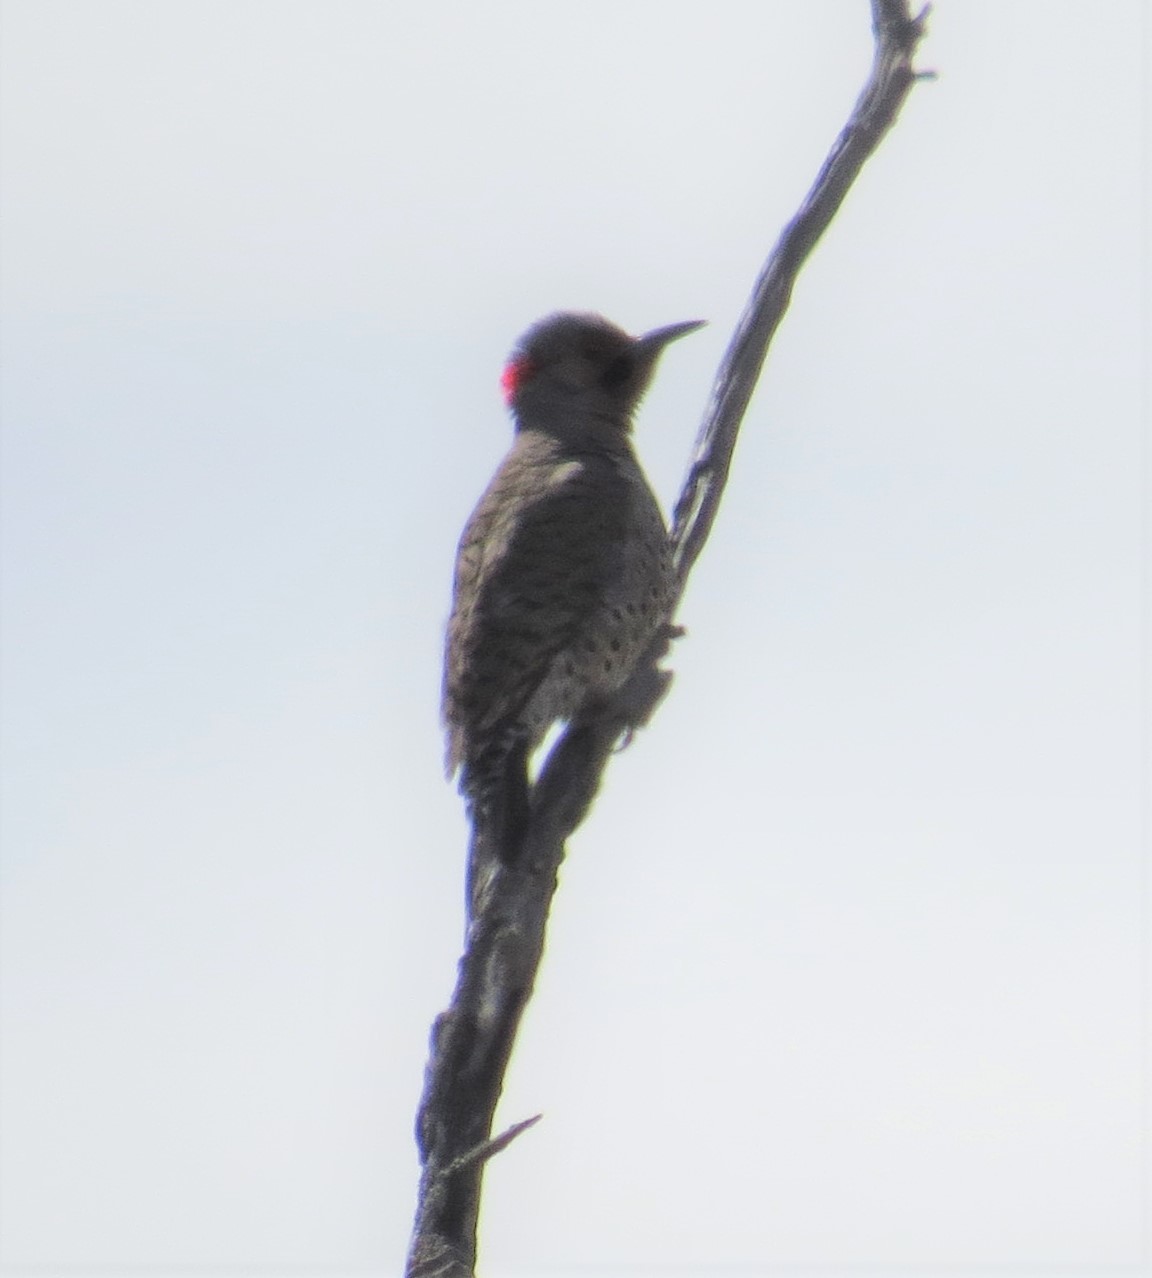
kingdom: Animalia
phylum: Chordata
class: Aves
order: Piciformes
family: Picidae
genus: Colaptes
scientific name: Colaptes auratus
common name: Northern flicker
